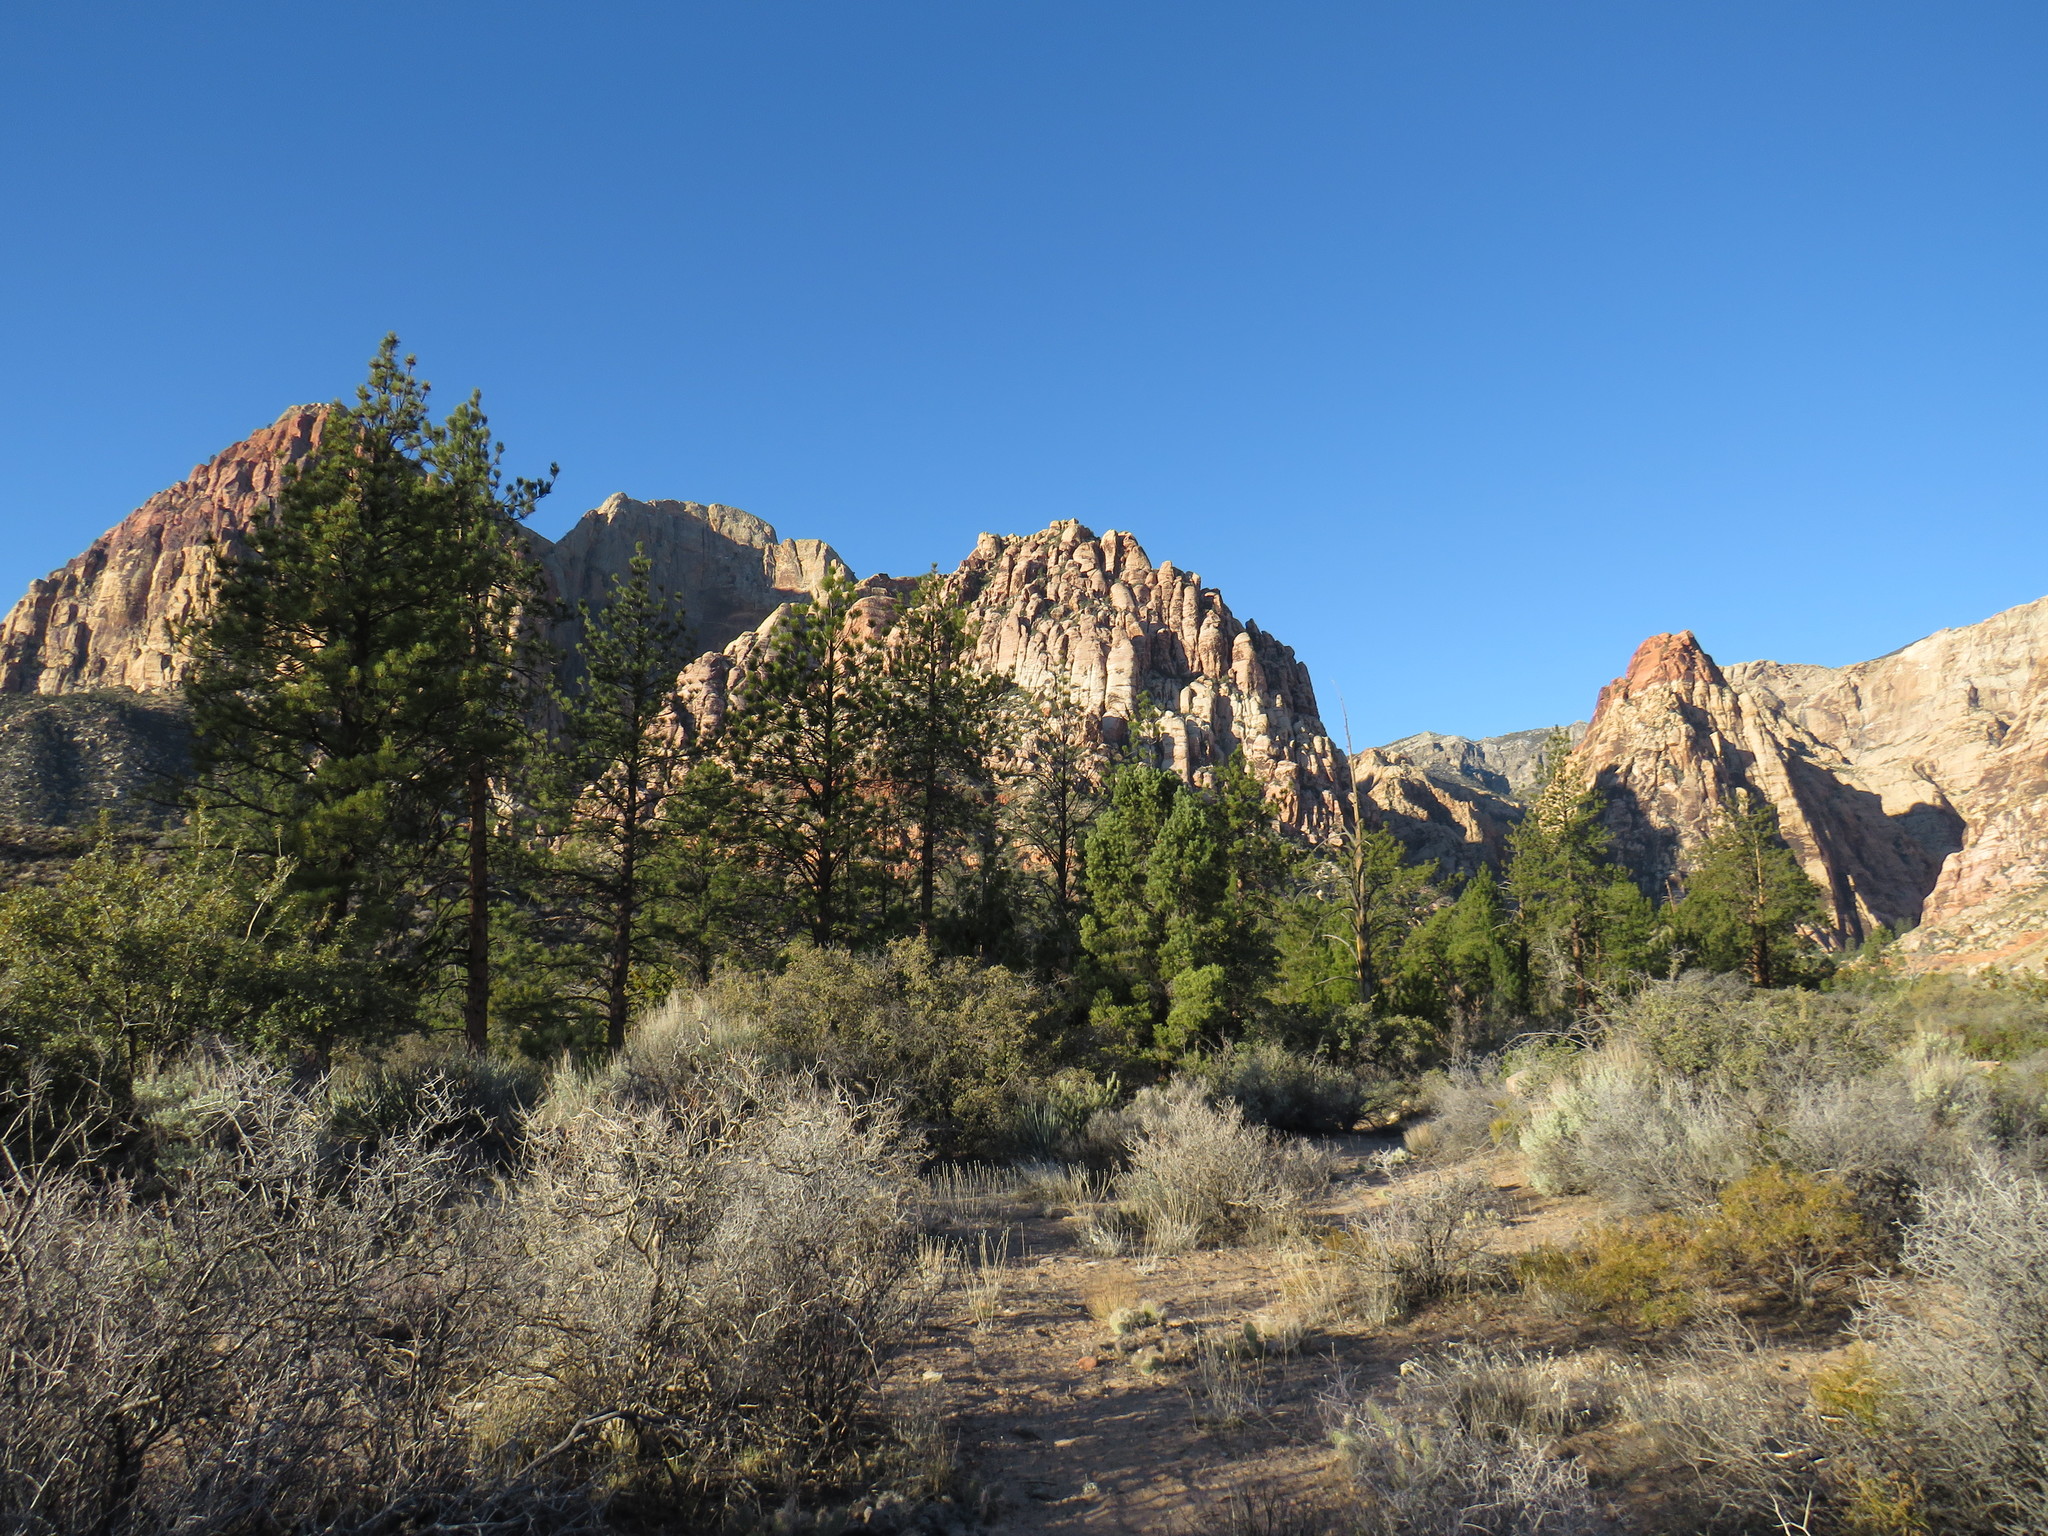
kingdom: Plantae
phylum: Tracheophyta
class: Pinopsida
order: Pinales
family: Pinaceae
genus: Pinus
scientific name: Pinus ponderosa
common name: Western yellow-pine
